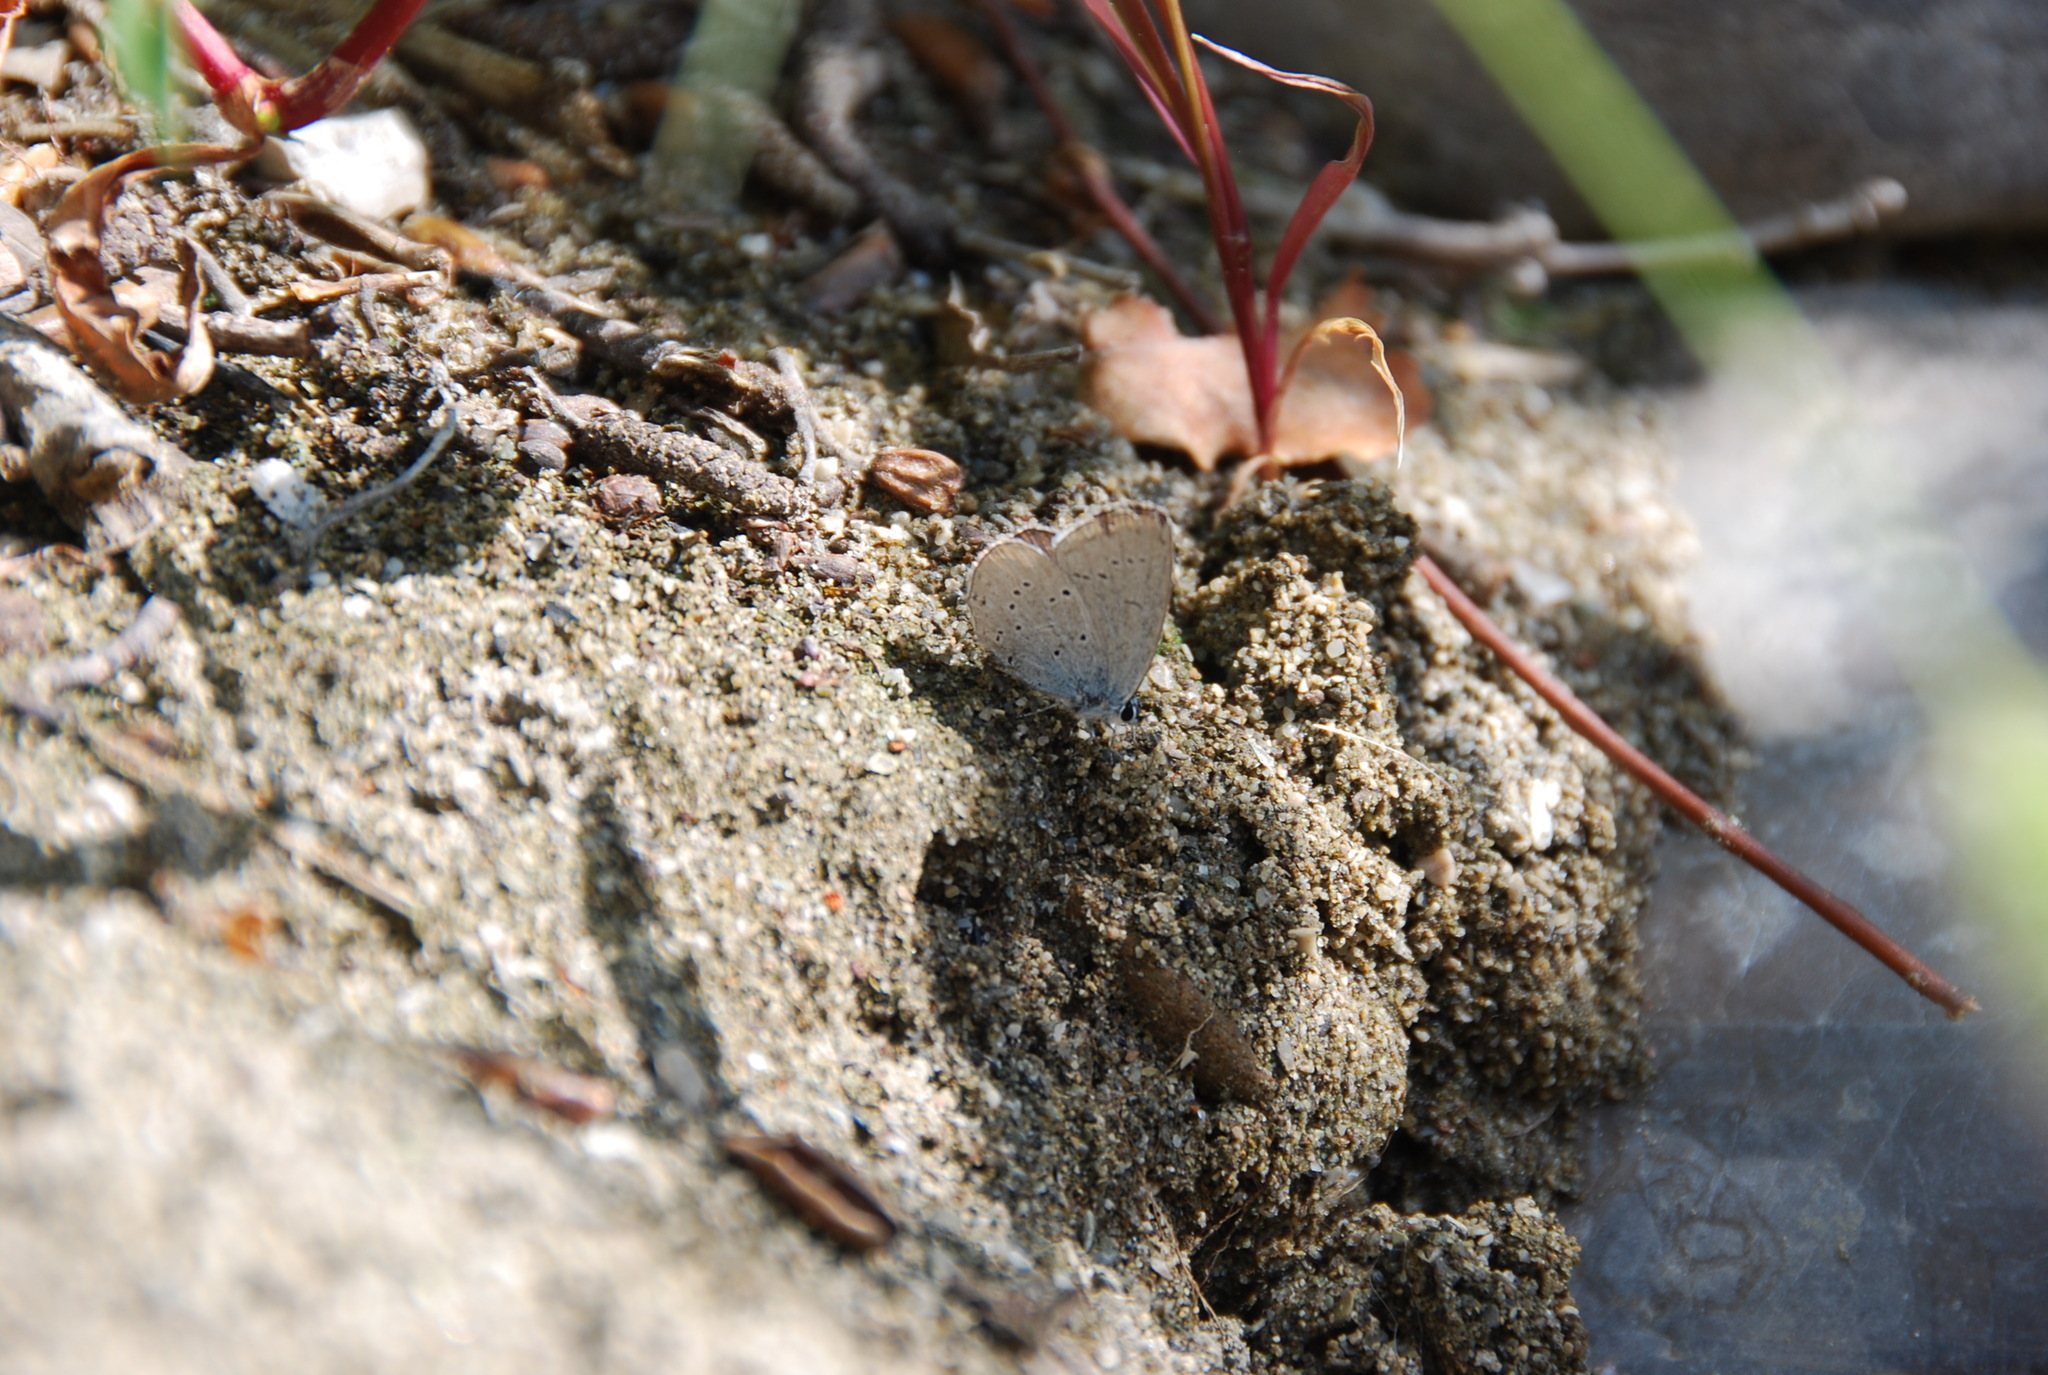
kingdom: Animalia
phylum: Arthropoda
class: Insecta
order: Lepidoptera
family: Lycaenidae
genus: Elkalyce
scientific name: Elkalyce alcetas
